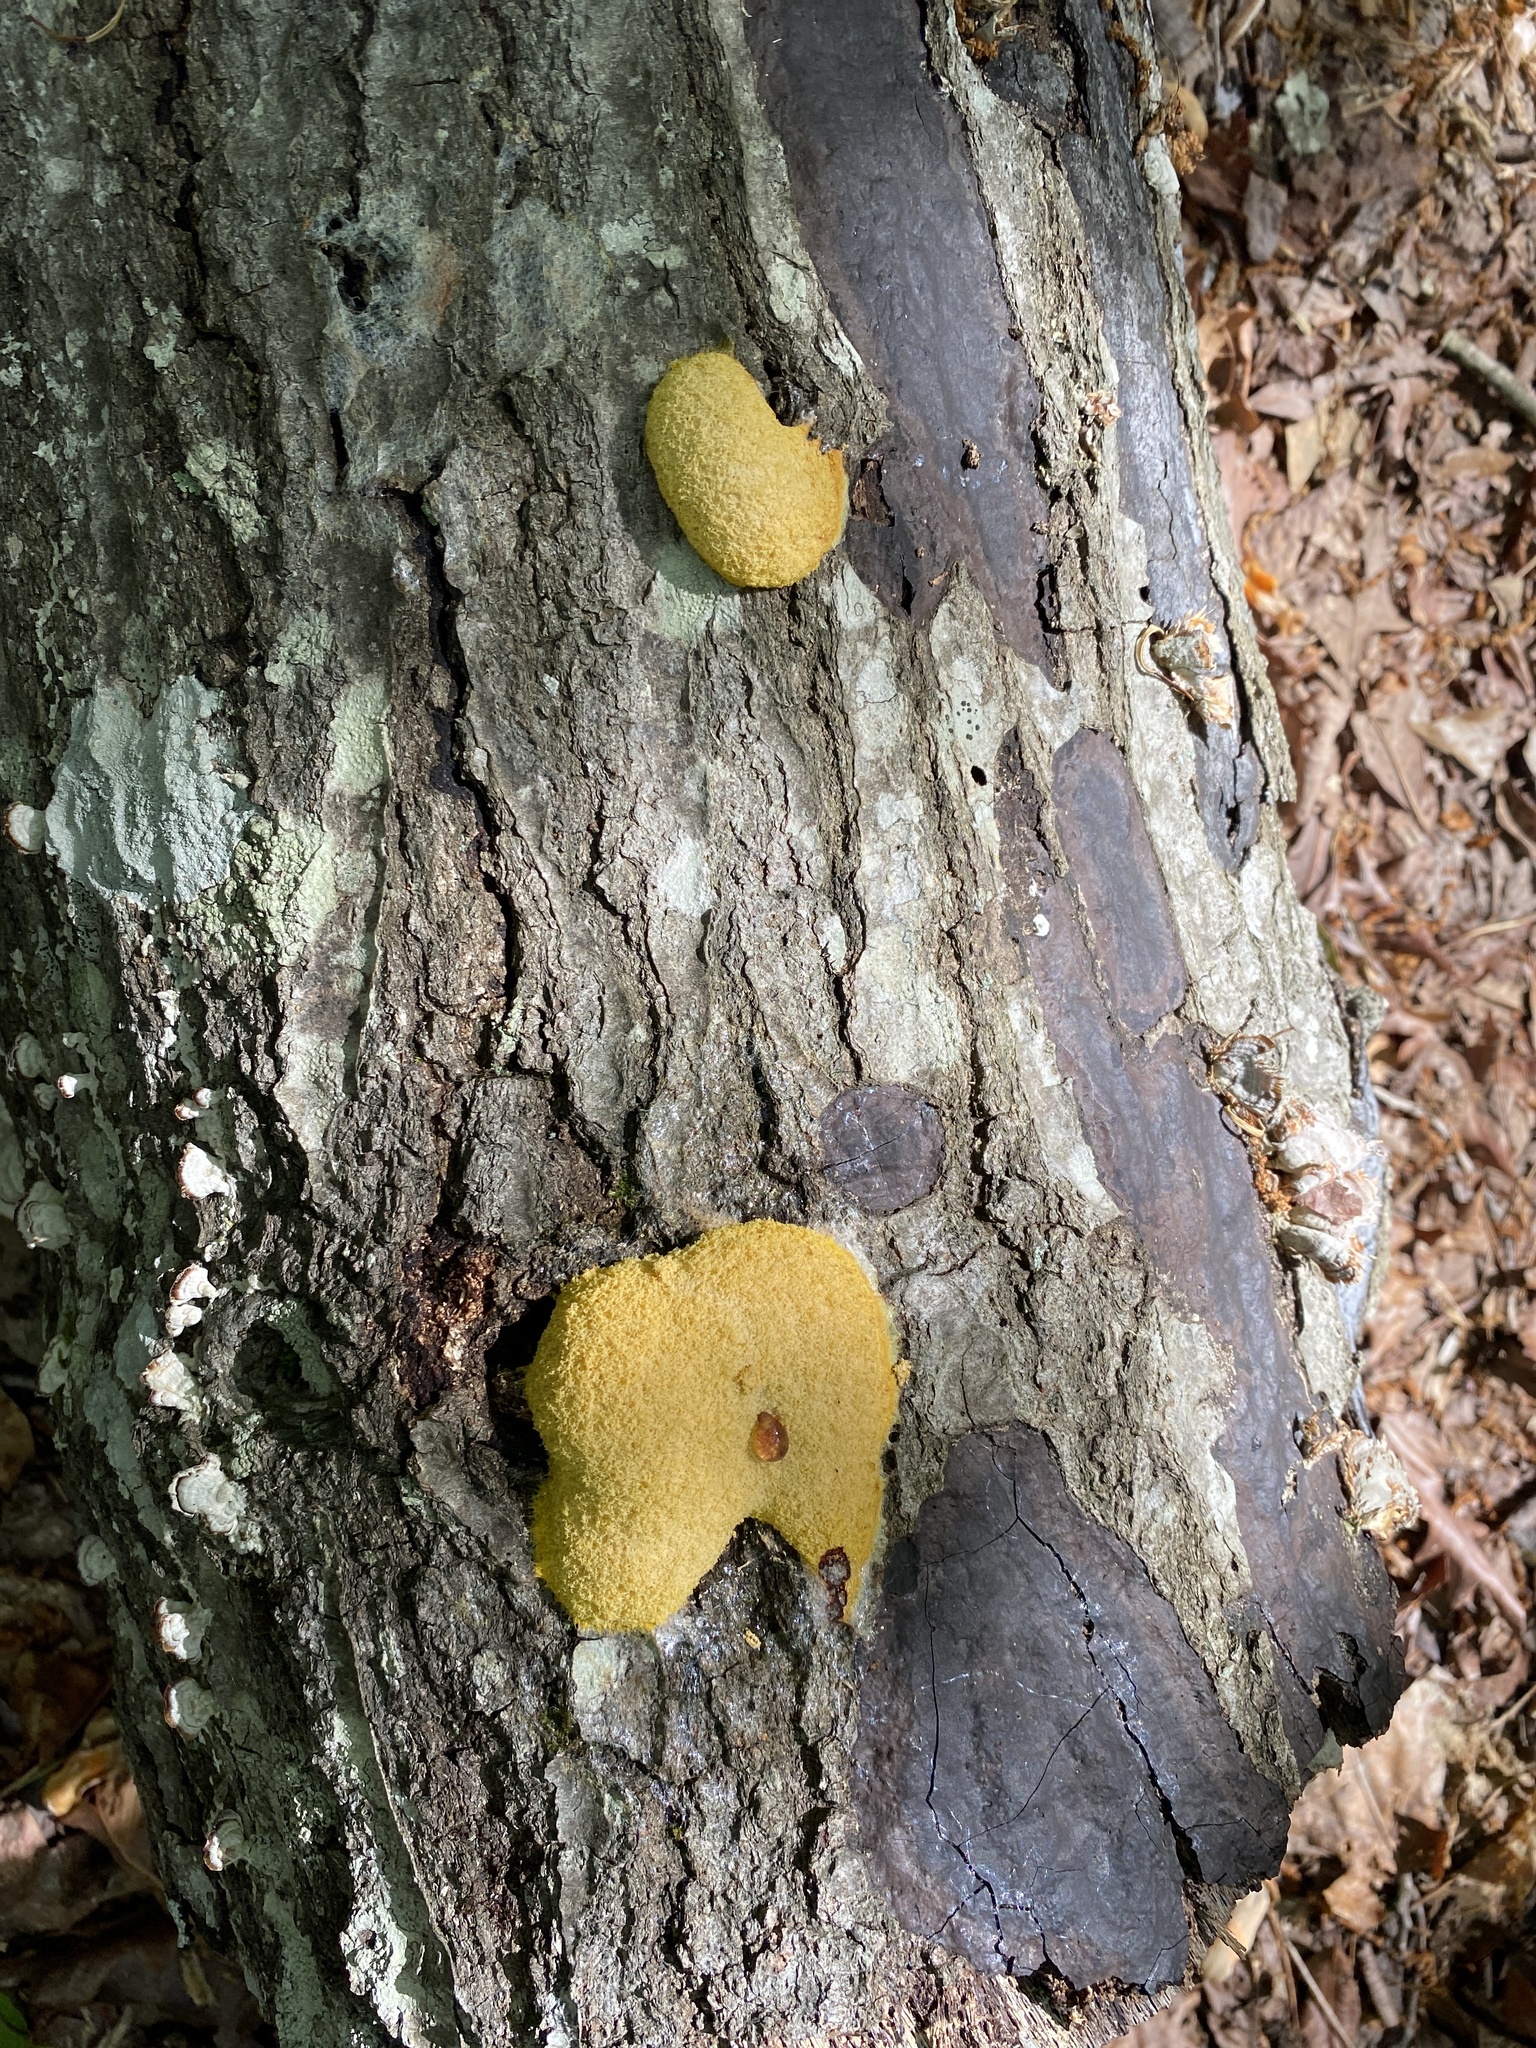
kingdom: Protozoa
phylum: Mycetozoa
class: Myxomycetes
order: Physarales
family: Physaraceae
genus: Fuligo
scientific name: Fuligo septica
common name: Dog vomit slime mold
